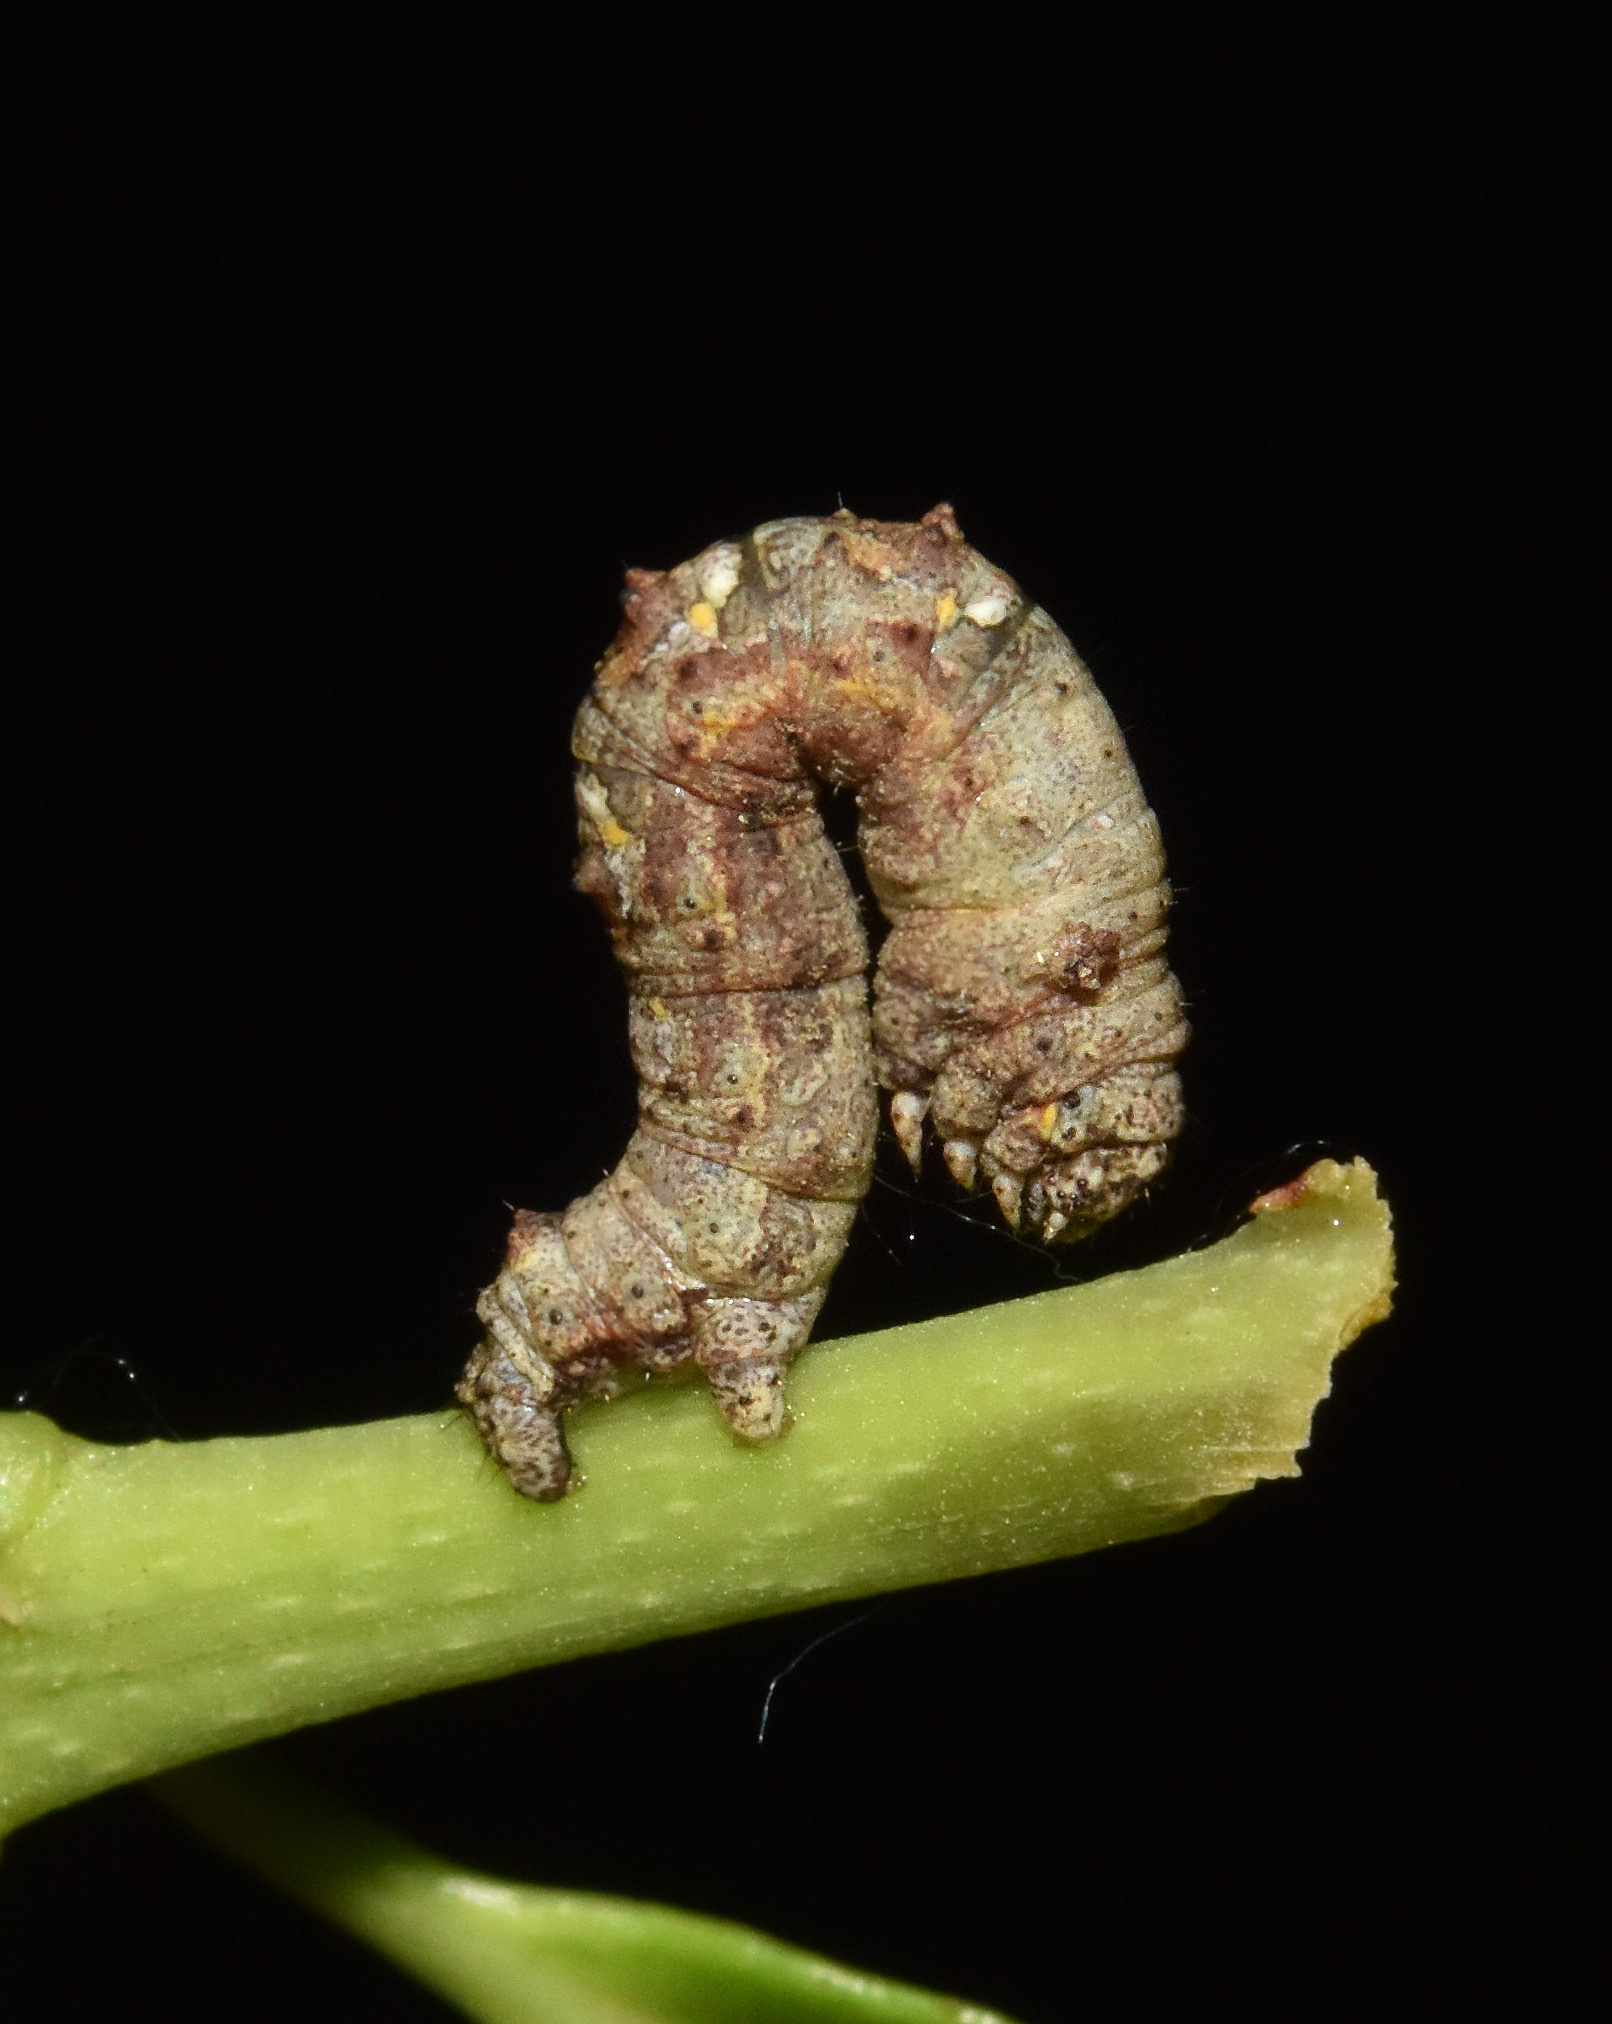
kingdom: Animalia
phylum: Arthropoda
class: Insecta
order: Lepidoptera
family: Geometridae
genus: Xylopteryx
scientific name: Xylopteryx prasinaria
